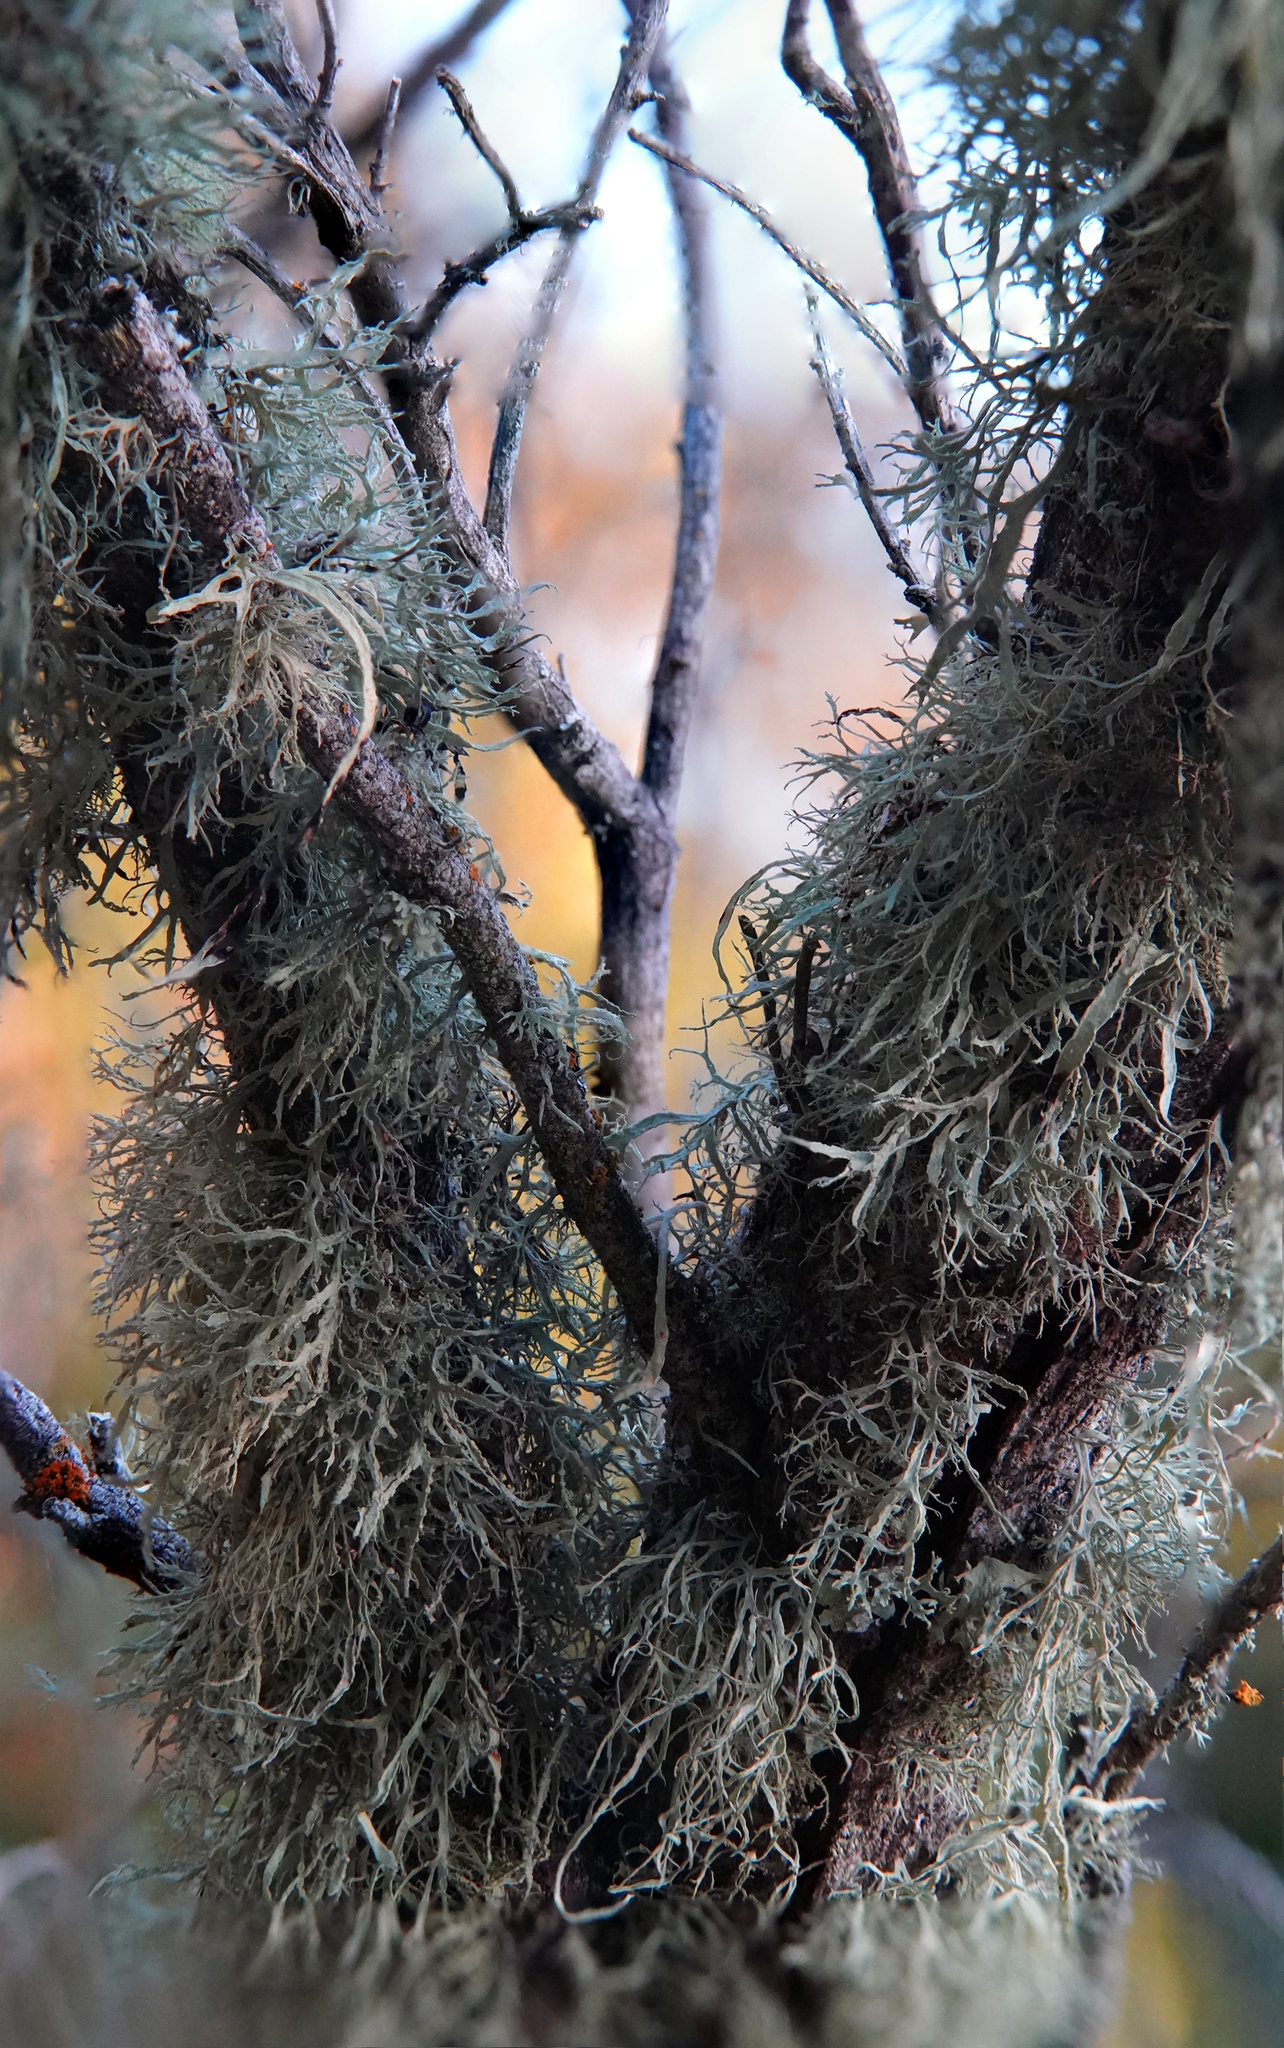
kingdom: Fungi
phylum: Ascomycota
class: Lecanoromycetes
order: Lecanorales
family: Ramalinaceae
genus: Ramalina
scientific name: Ramalina farinacea
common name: Farinose cartilage lichen
